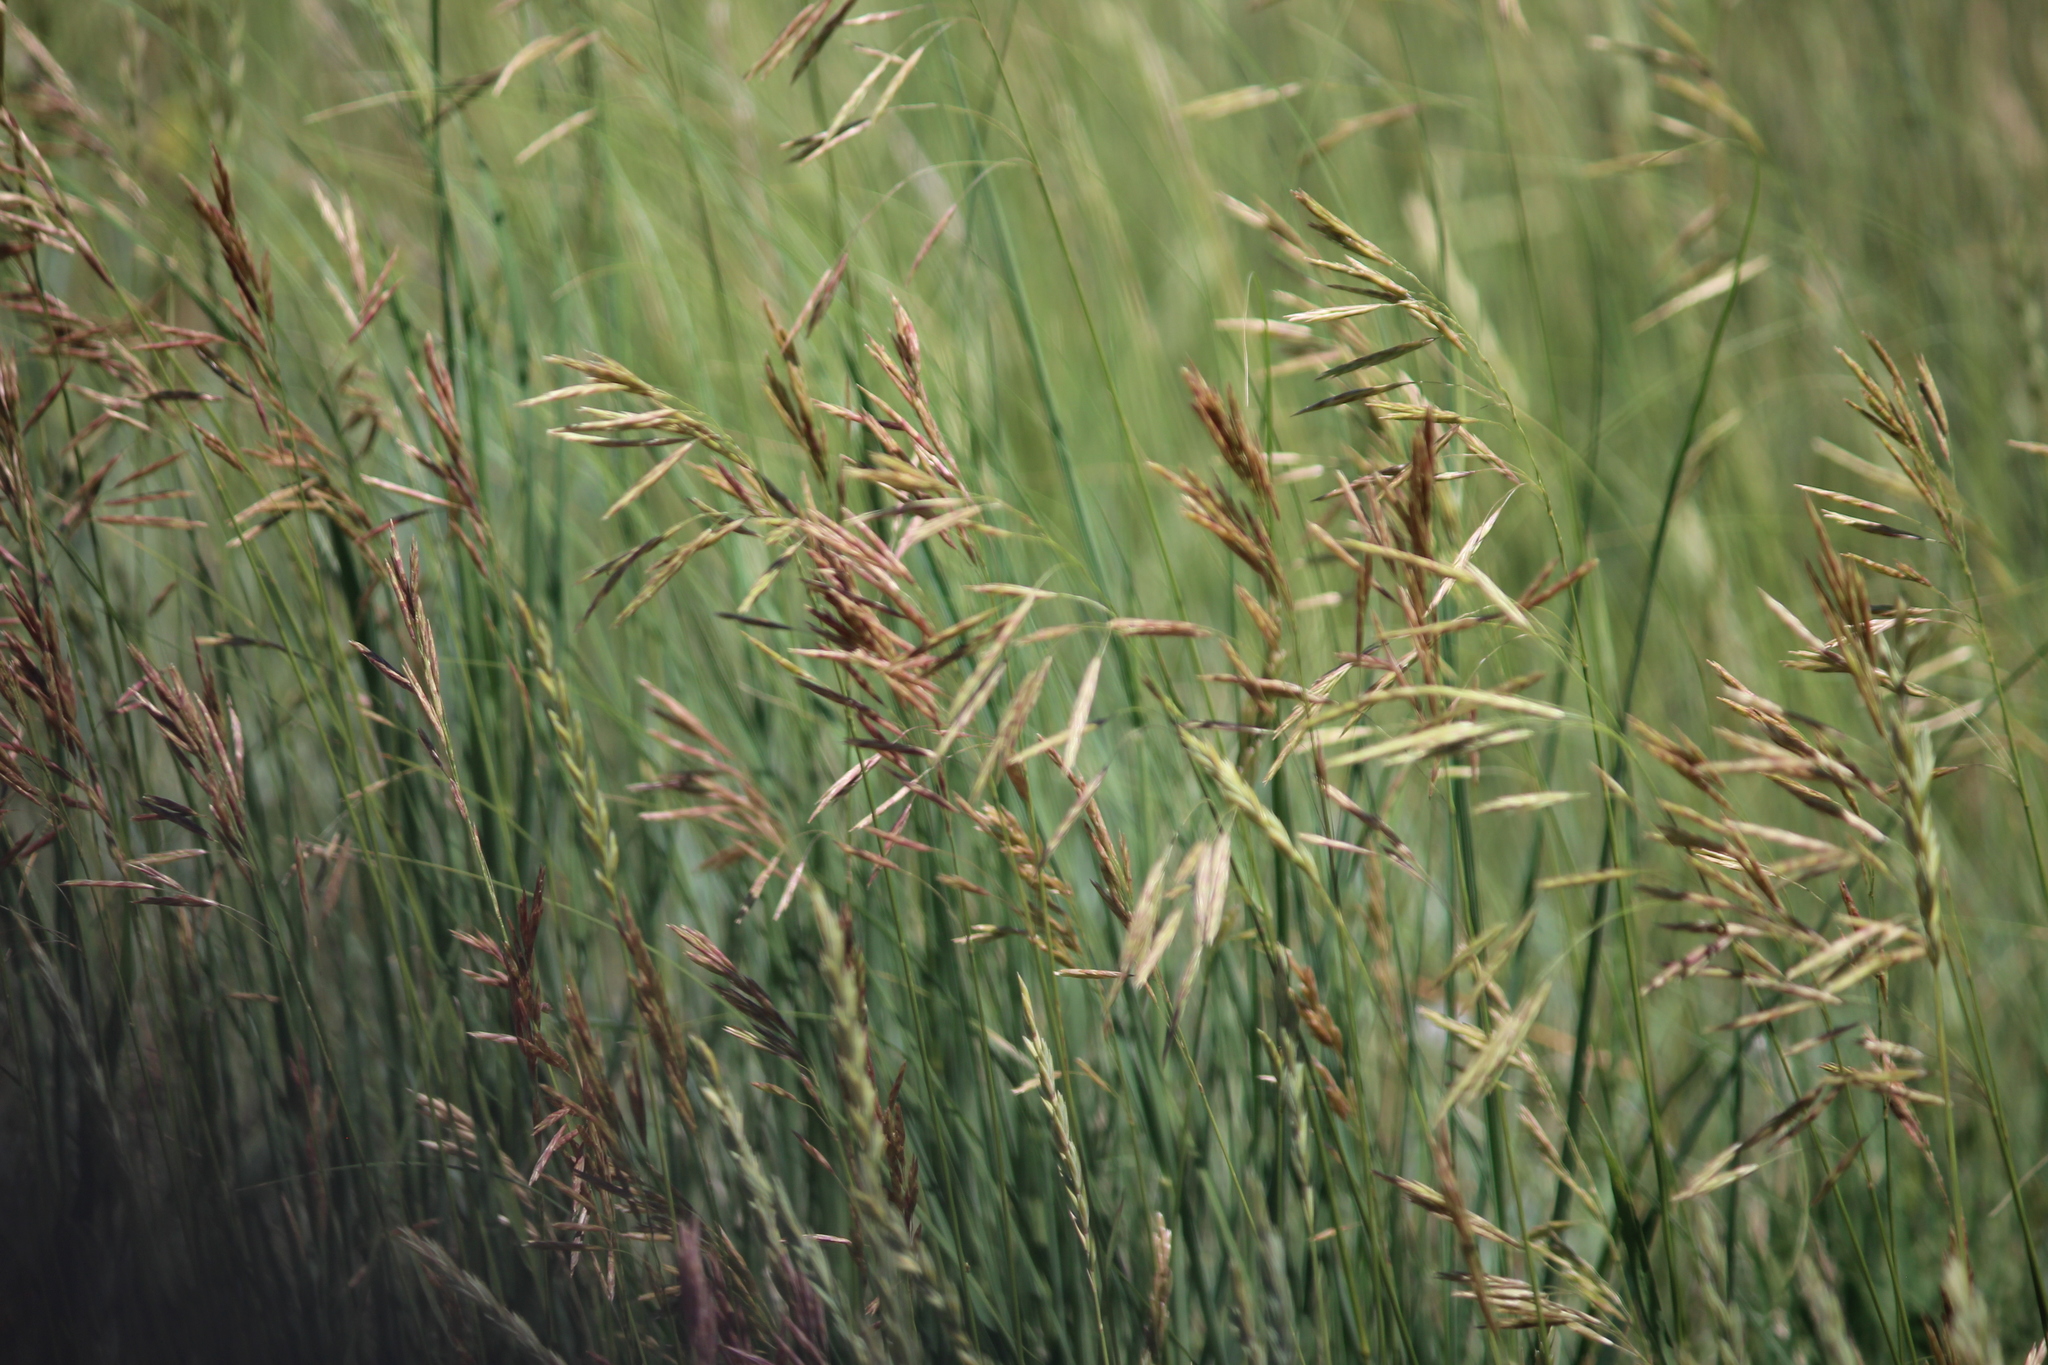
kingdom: Plantae
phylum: Tracheophyta
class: Liliopsida
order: Poales
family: Poaceae
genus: Bromus
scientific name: Bromus inermis
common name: Smooth brome
